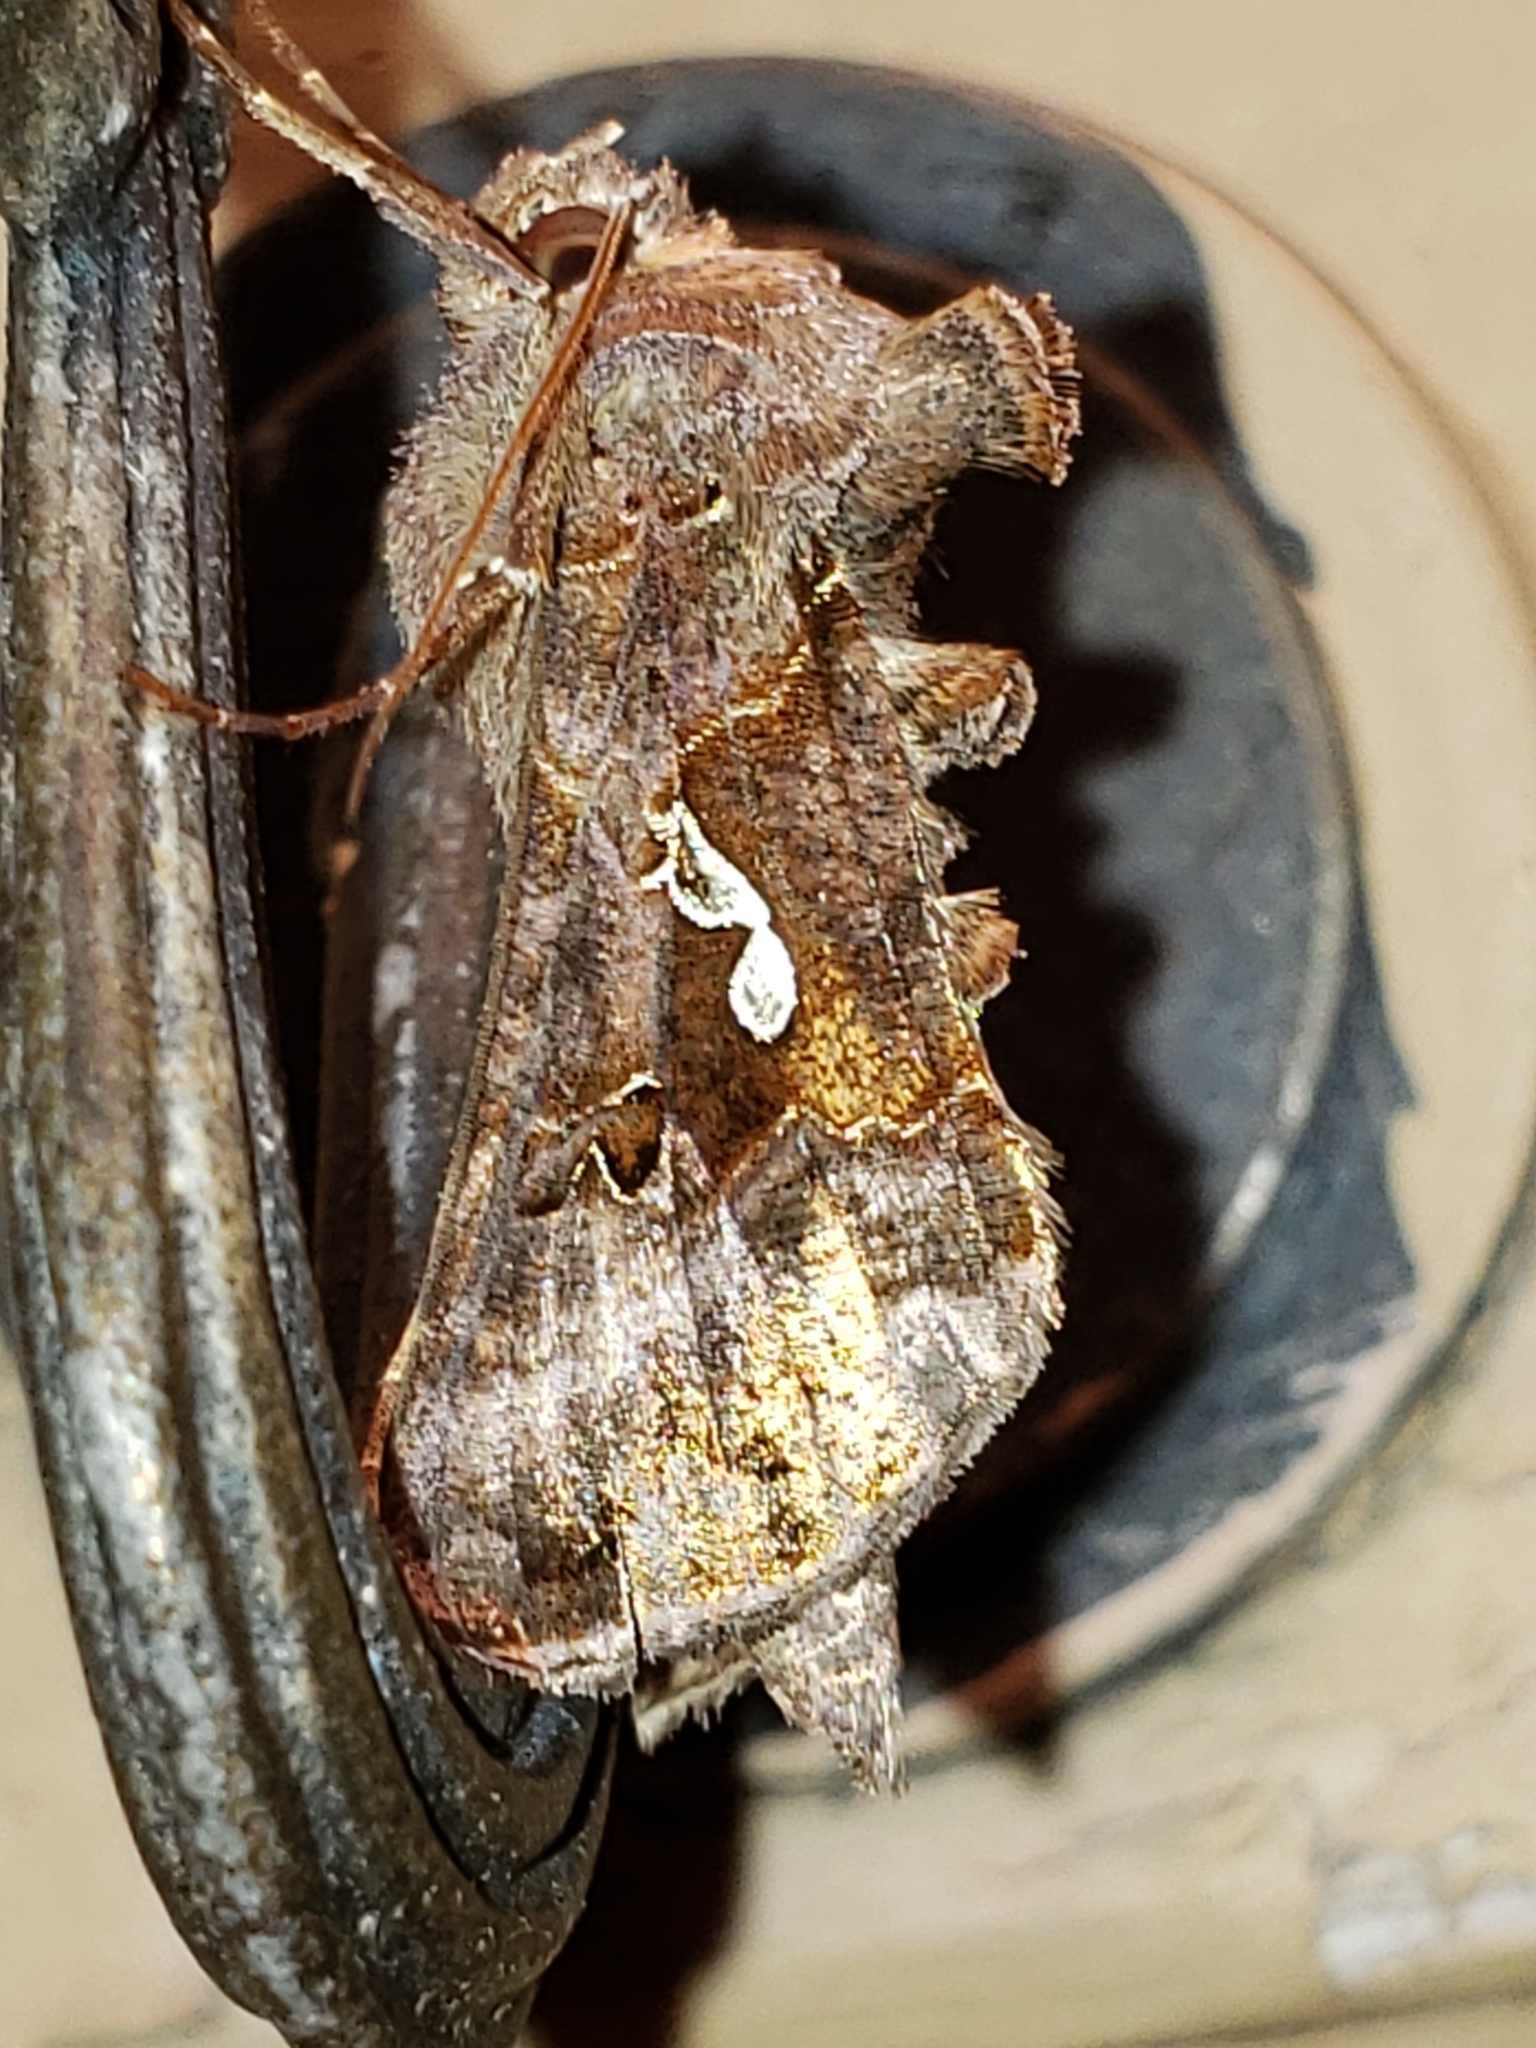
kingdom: Animalia
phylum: Arthropoda
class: Insecta
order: Lepidoptera
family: Noctuidae
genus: Autographa
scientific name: Autographa precationis
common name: Common looper moth
